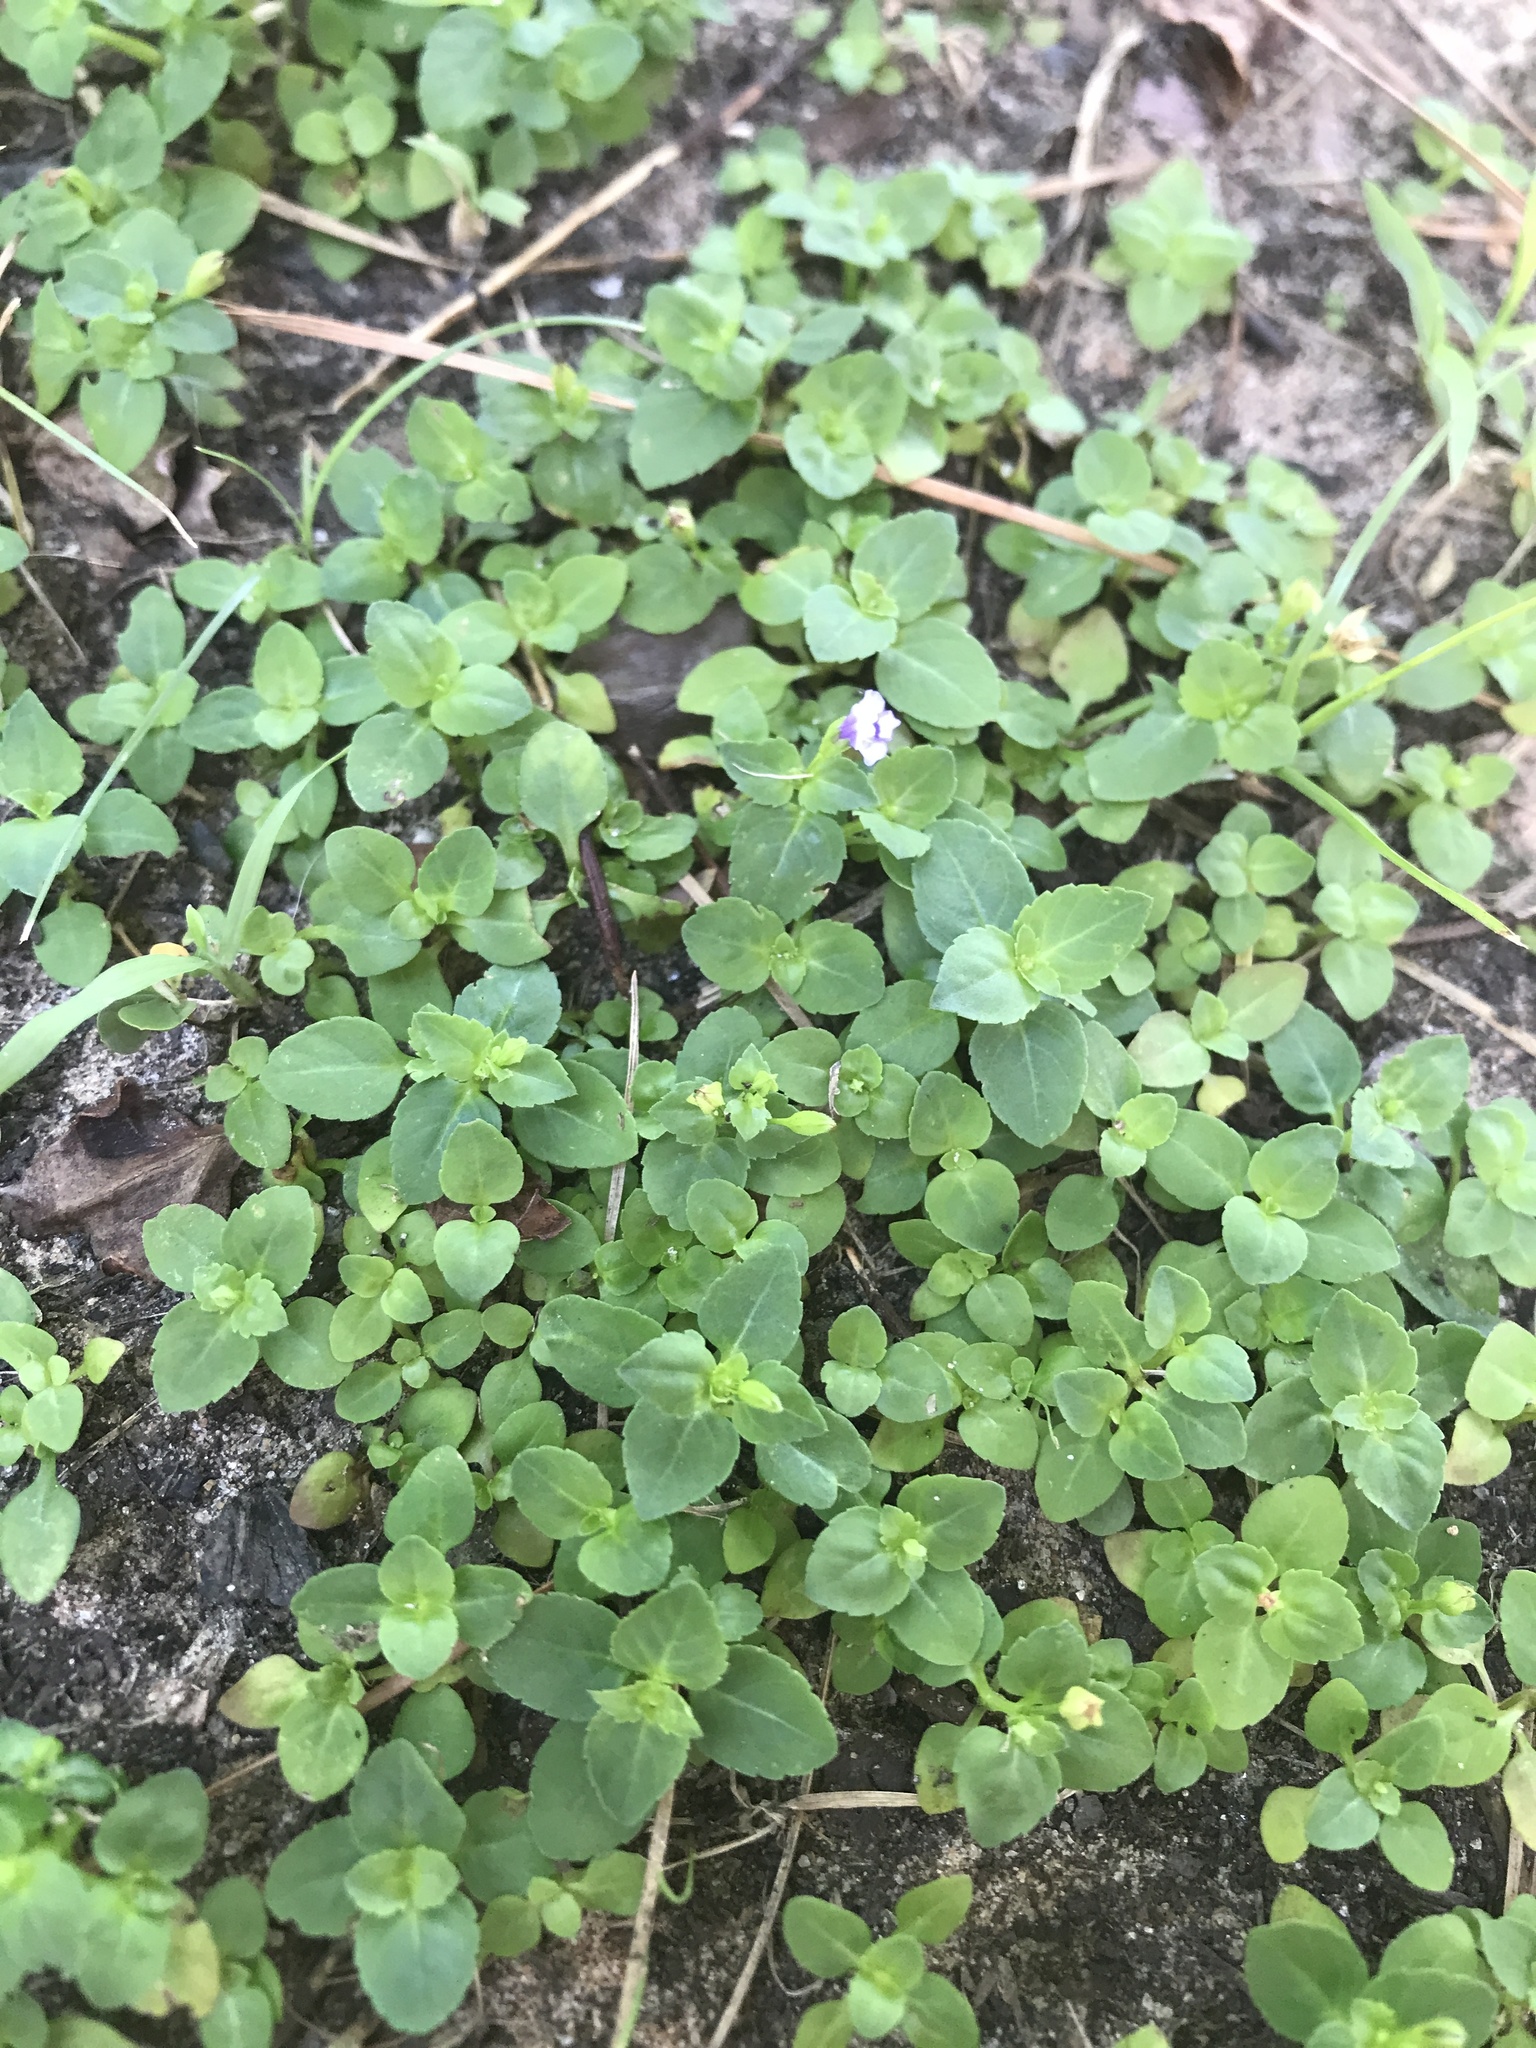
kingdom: Plantae
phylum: Tracheophyta
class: Magnoliopsida
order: Lamiales
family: Linderniaceae
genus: Torenia
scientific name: Torenia crustacea
